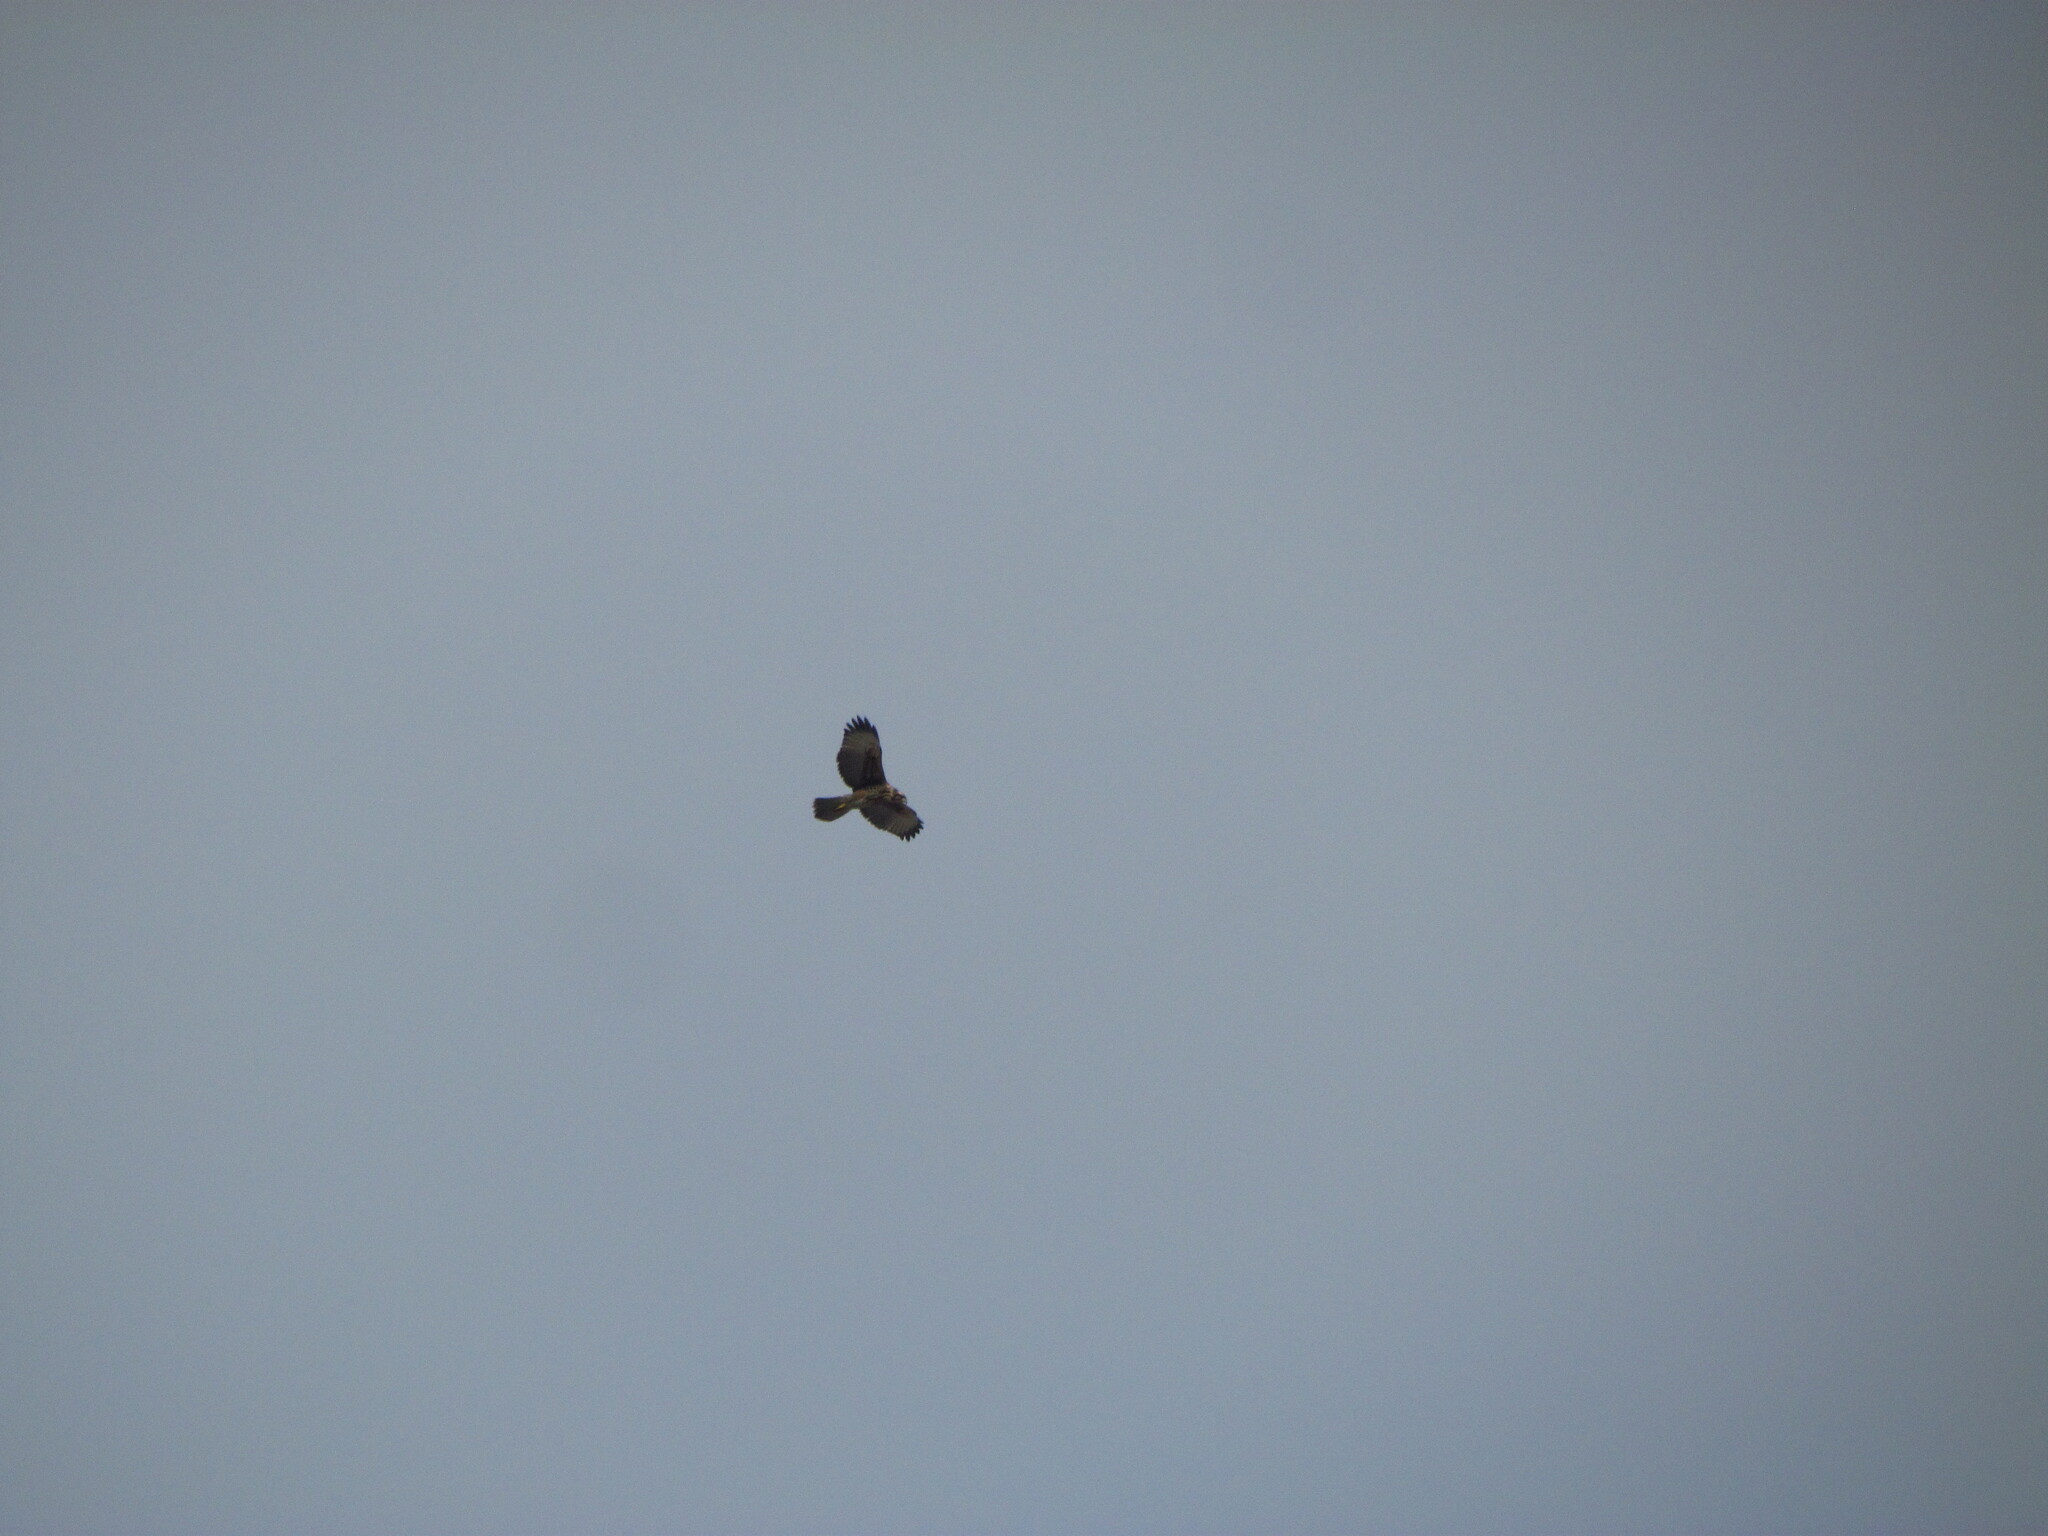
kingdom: Animalia
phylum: Chordata
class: Aves
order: Accipitriformes
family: Accipitridae
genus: Parabuteo
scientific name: Parabuteo unicinctus
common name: Harris's hawk
